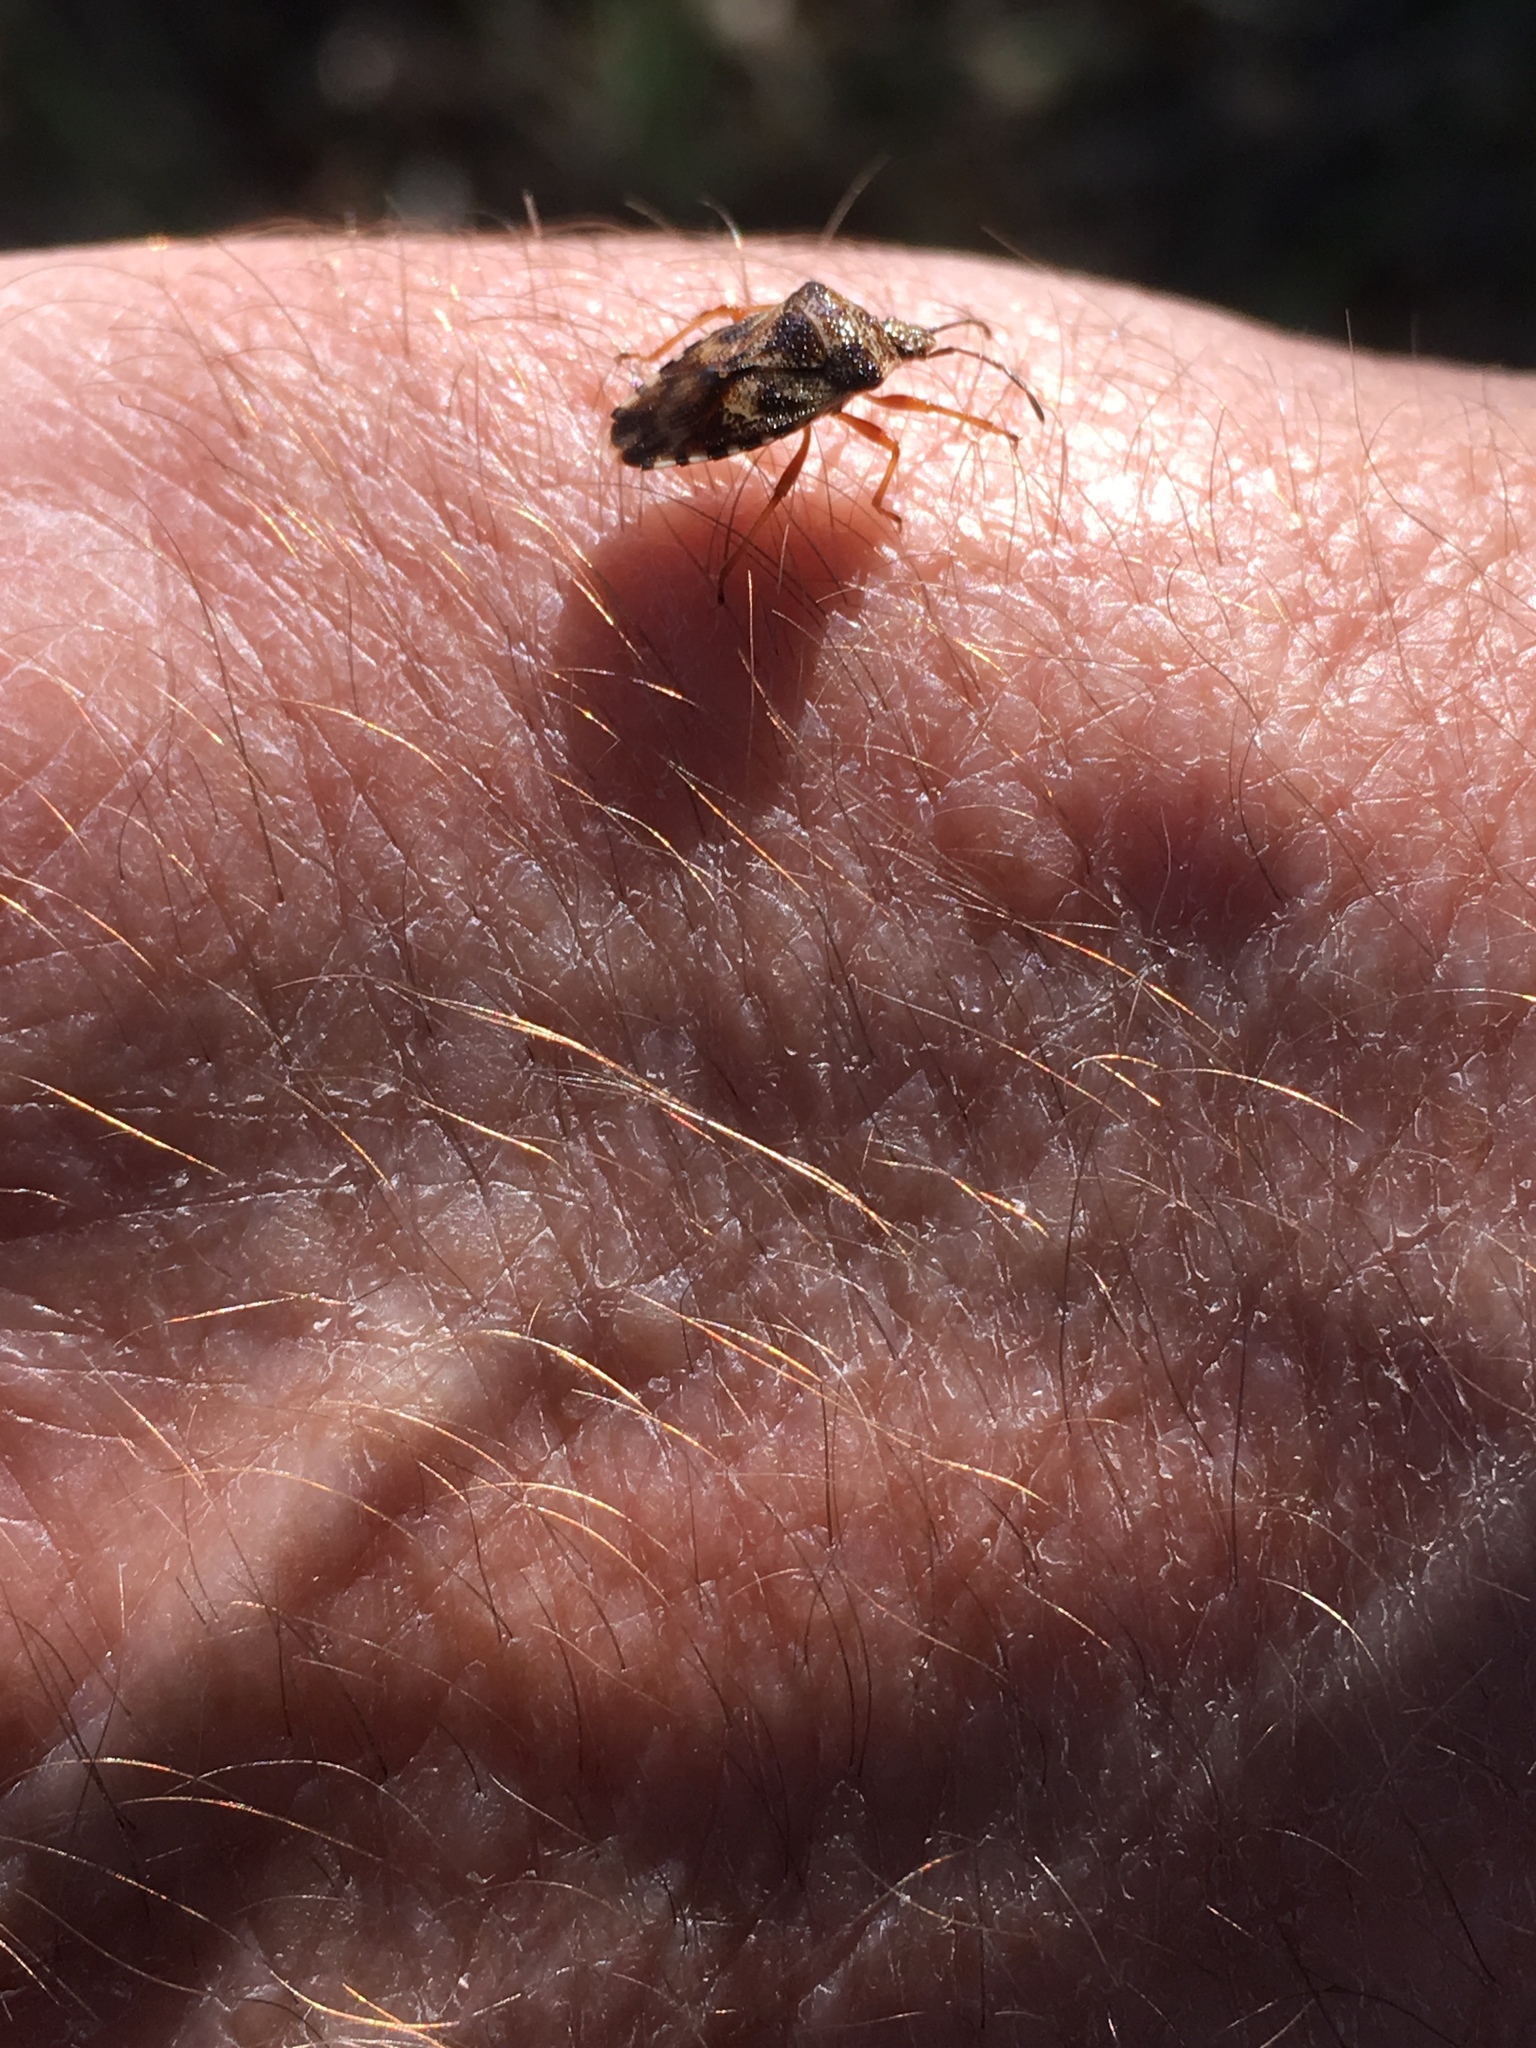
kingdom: Animalia
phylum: Arthropoda
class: Insecta
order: Hemiptera
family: Acanthosomatidae
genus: Elasmucha
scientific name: Elasmucha lateralis
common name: Shield bug
